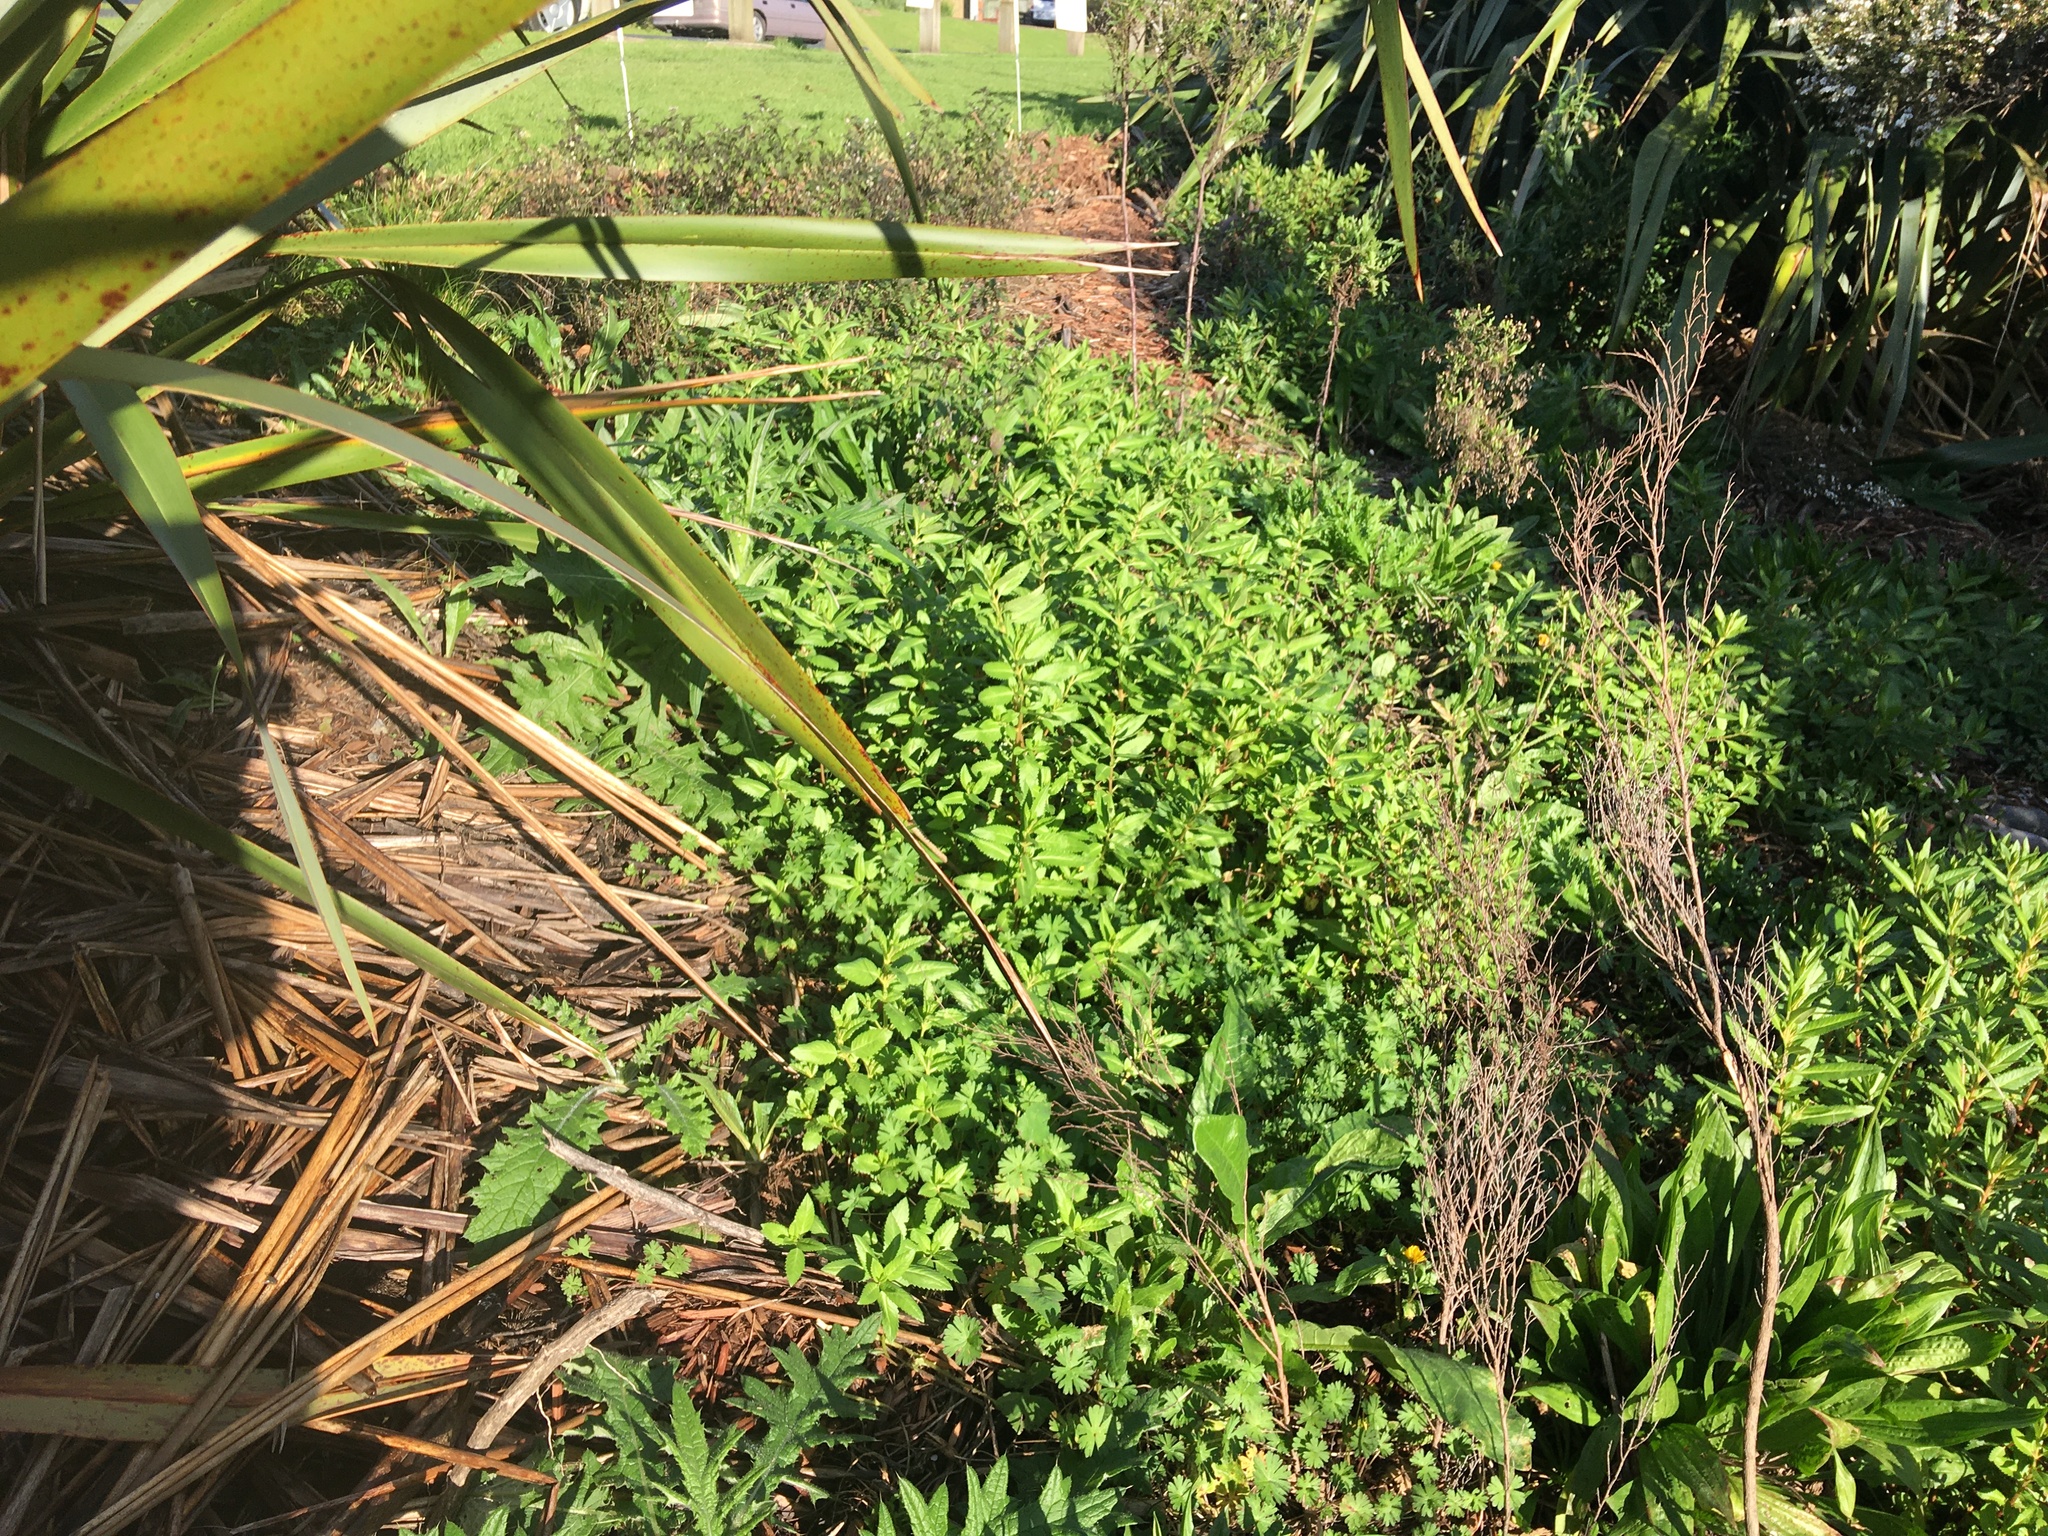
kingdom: Plantae
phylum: Tracheophyta
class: Magnoliopsida
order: Saxifragales
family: Haloragaceae
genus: Haloragis
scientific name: Haloragis erecta
